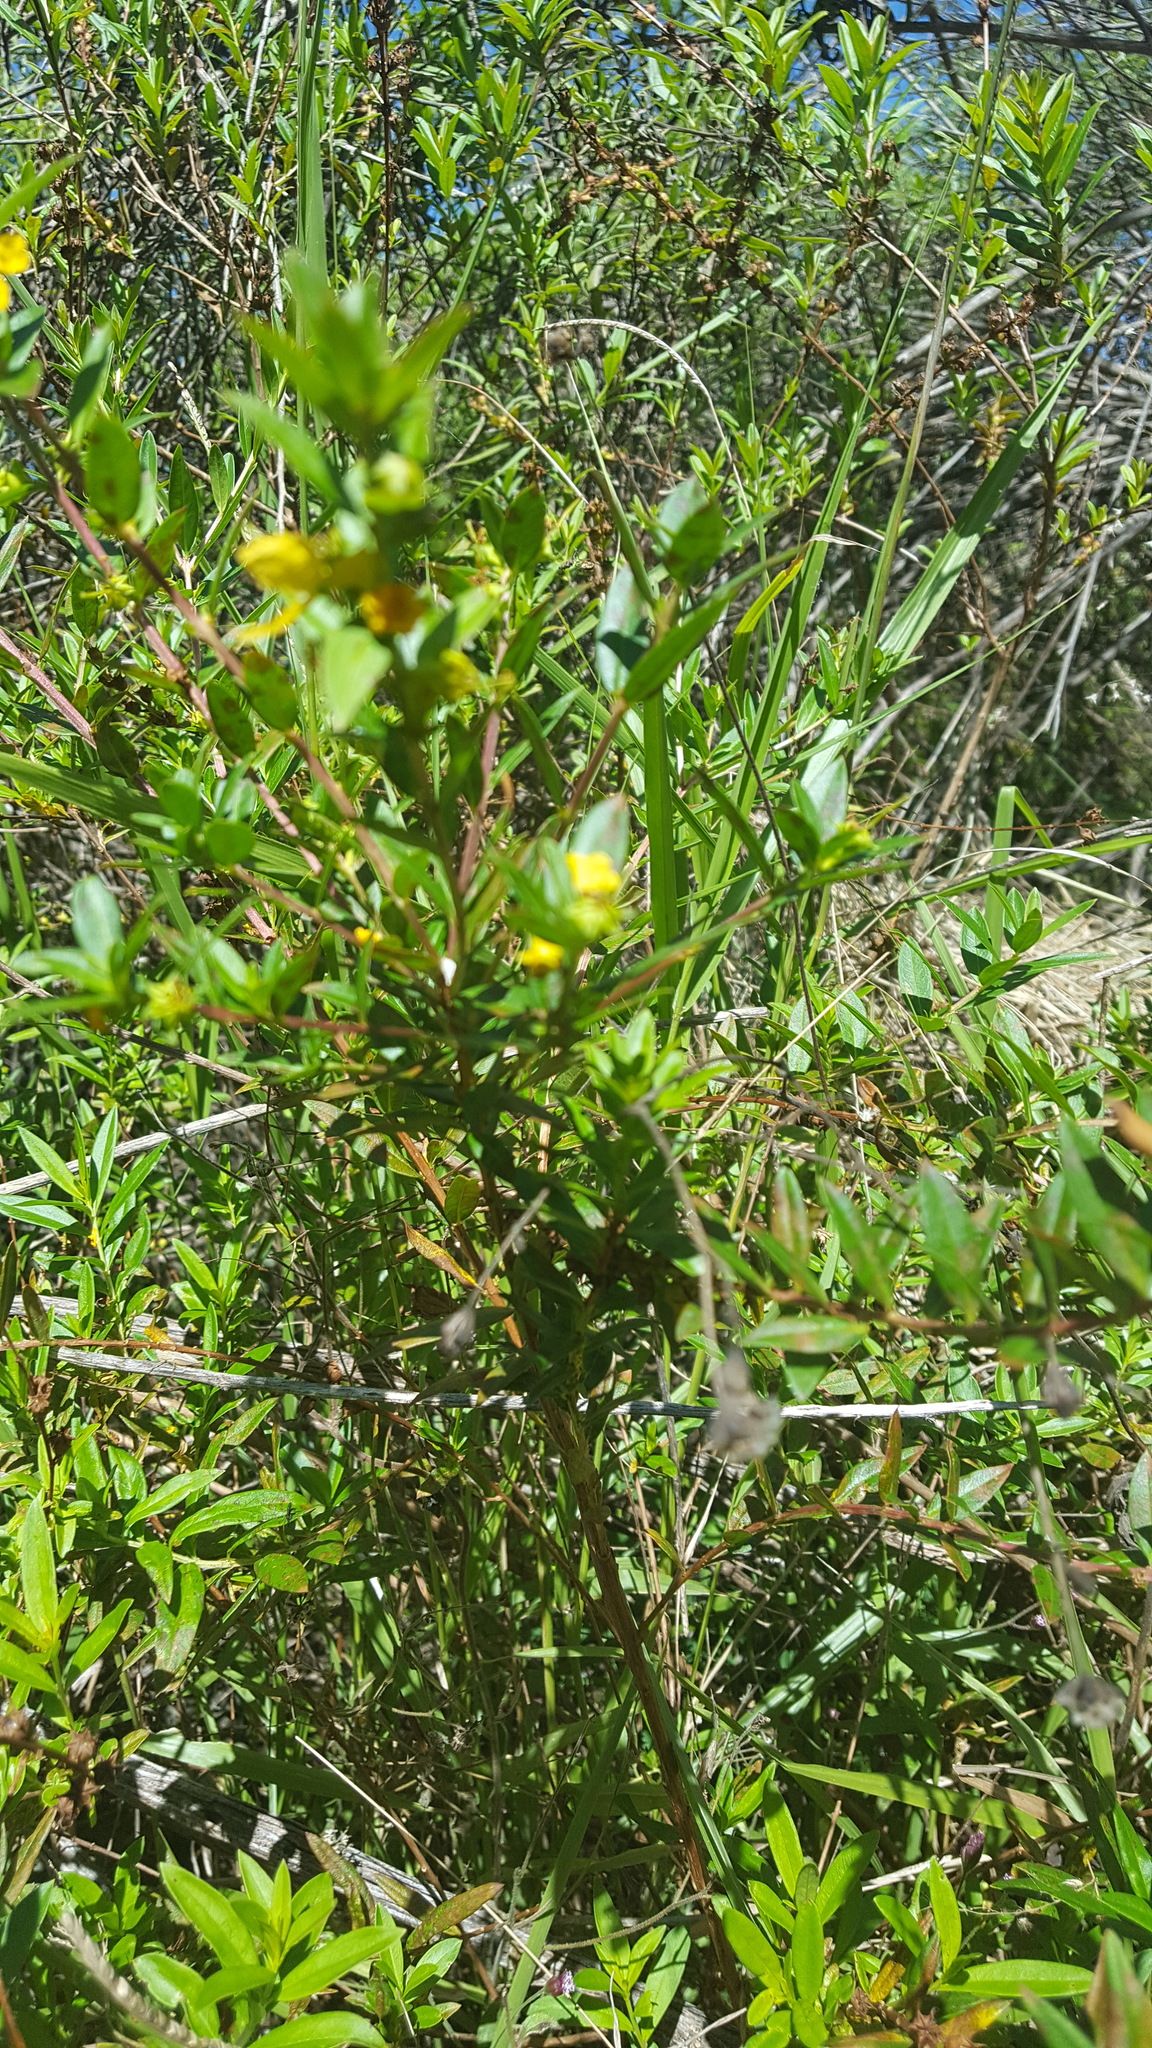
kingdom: Plantae
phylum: Tracheophyta
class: Magnoliopsida
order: Myrtales
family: Lythraceae
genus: Heimia
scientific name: Heimia salicifolia
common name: Willow-leaf heimia
